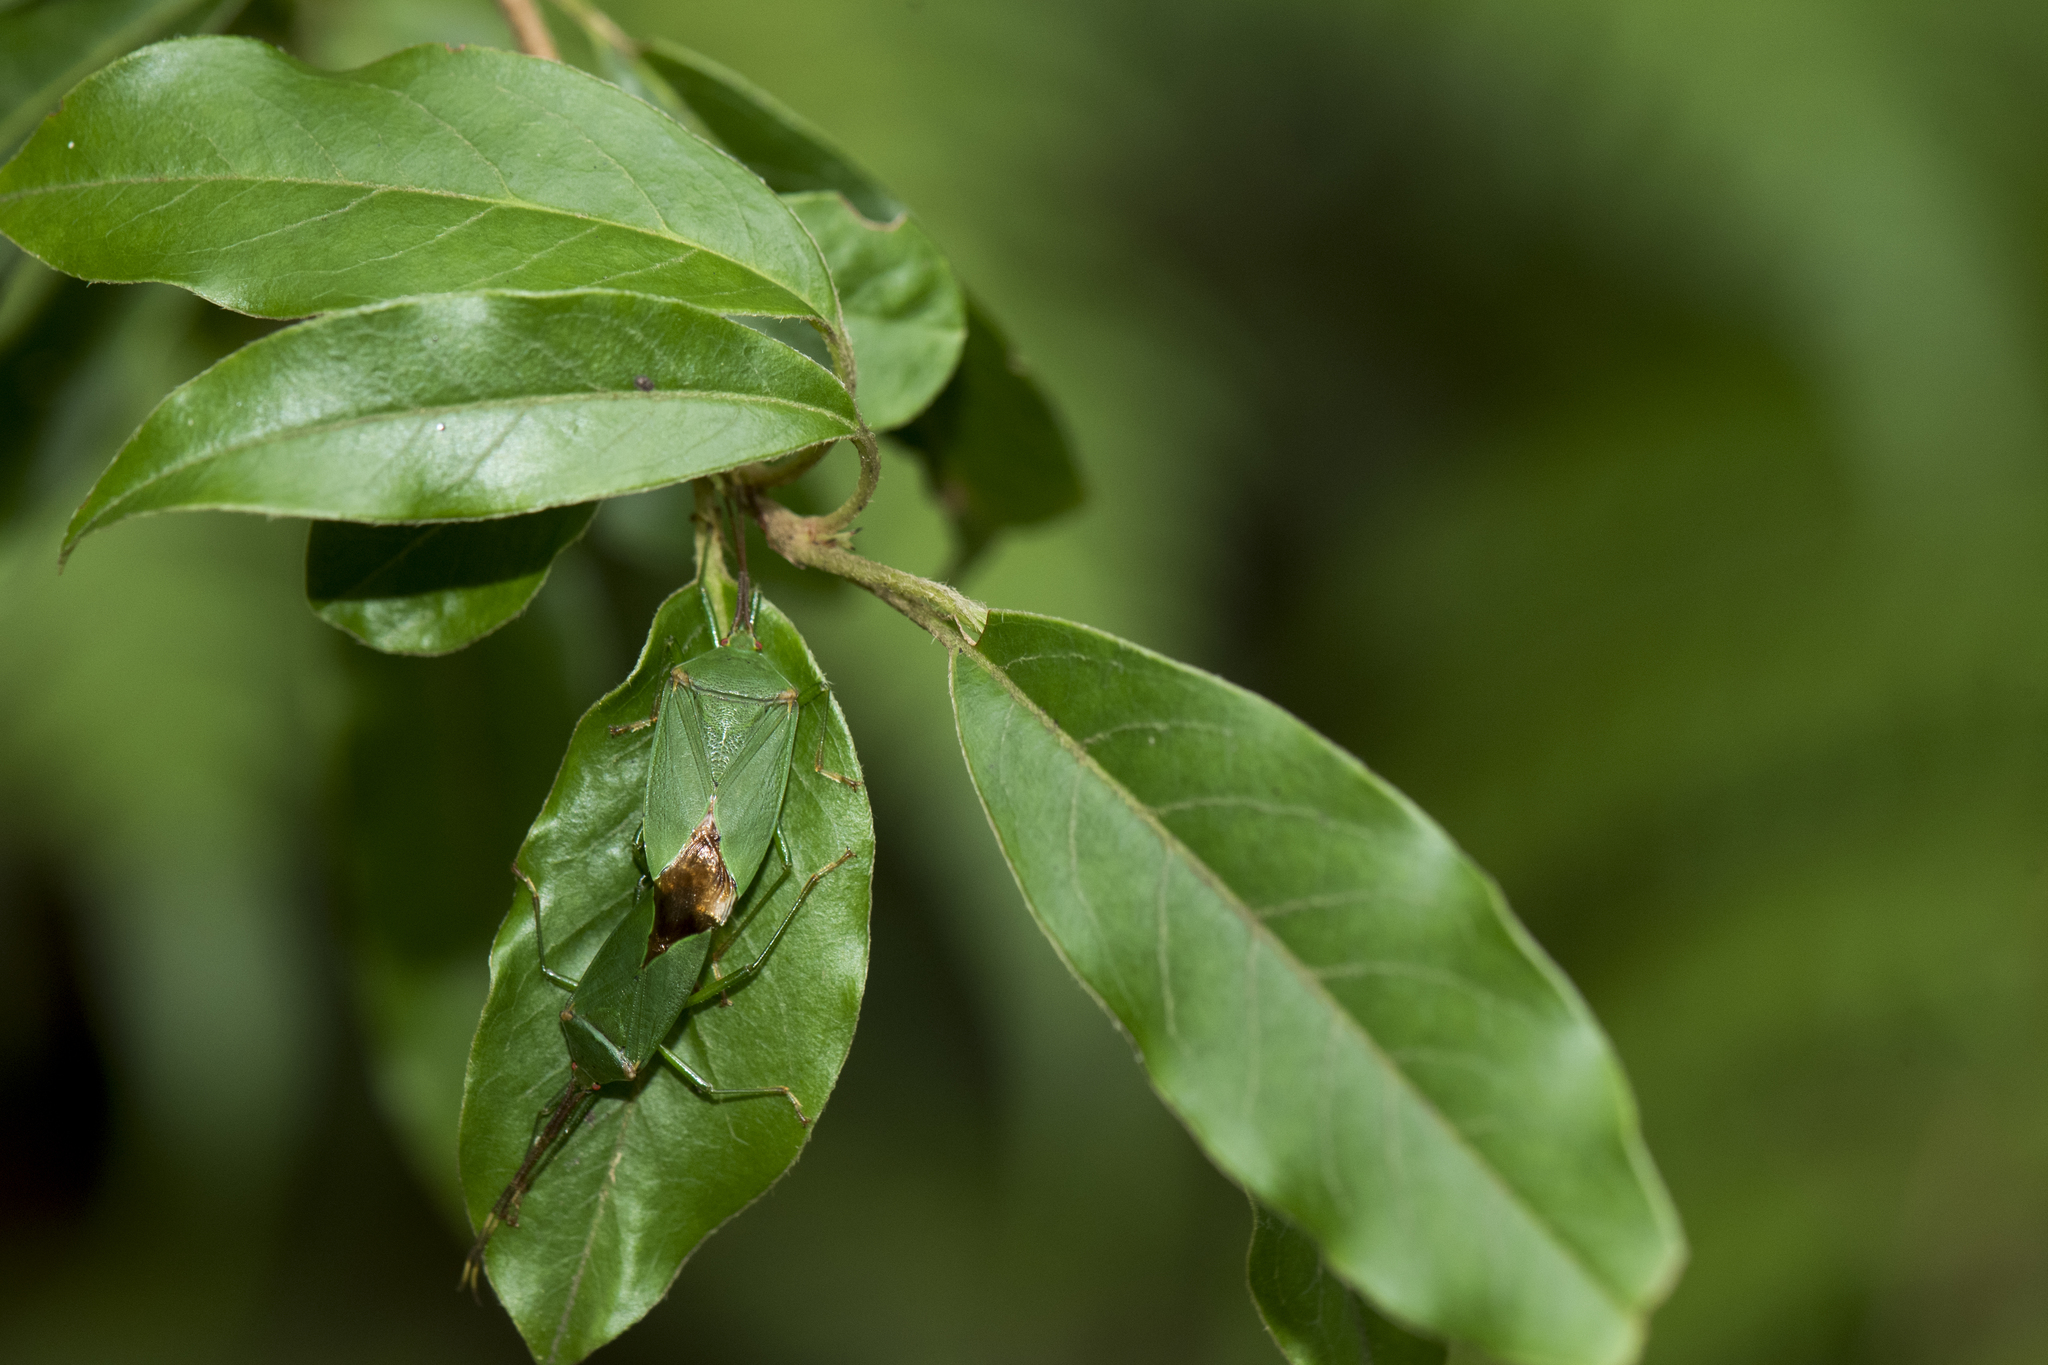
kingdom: Animalia
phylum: Arthropoda
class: Insecta
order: Hemiptera
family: Urostylididae
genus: Urostylis
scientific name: Urostylis blattiformis
